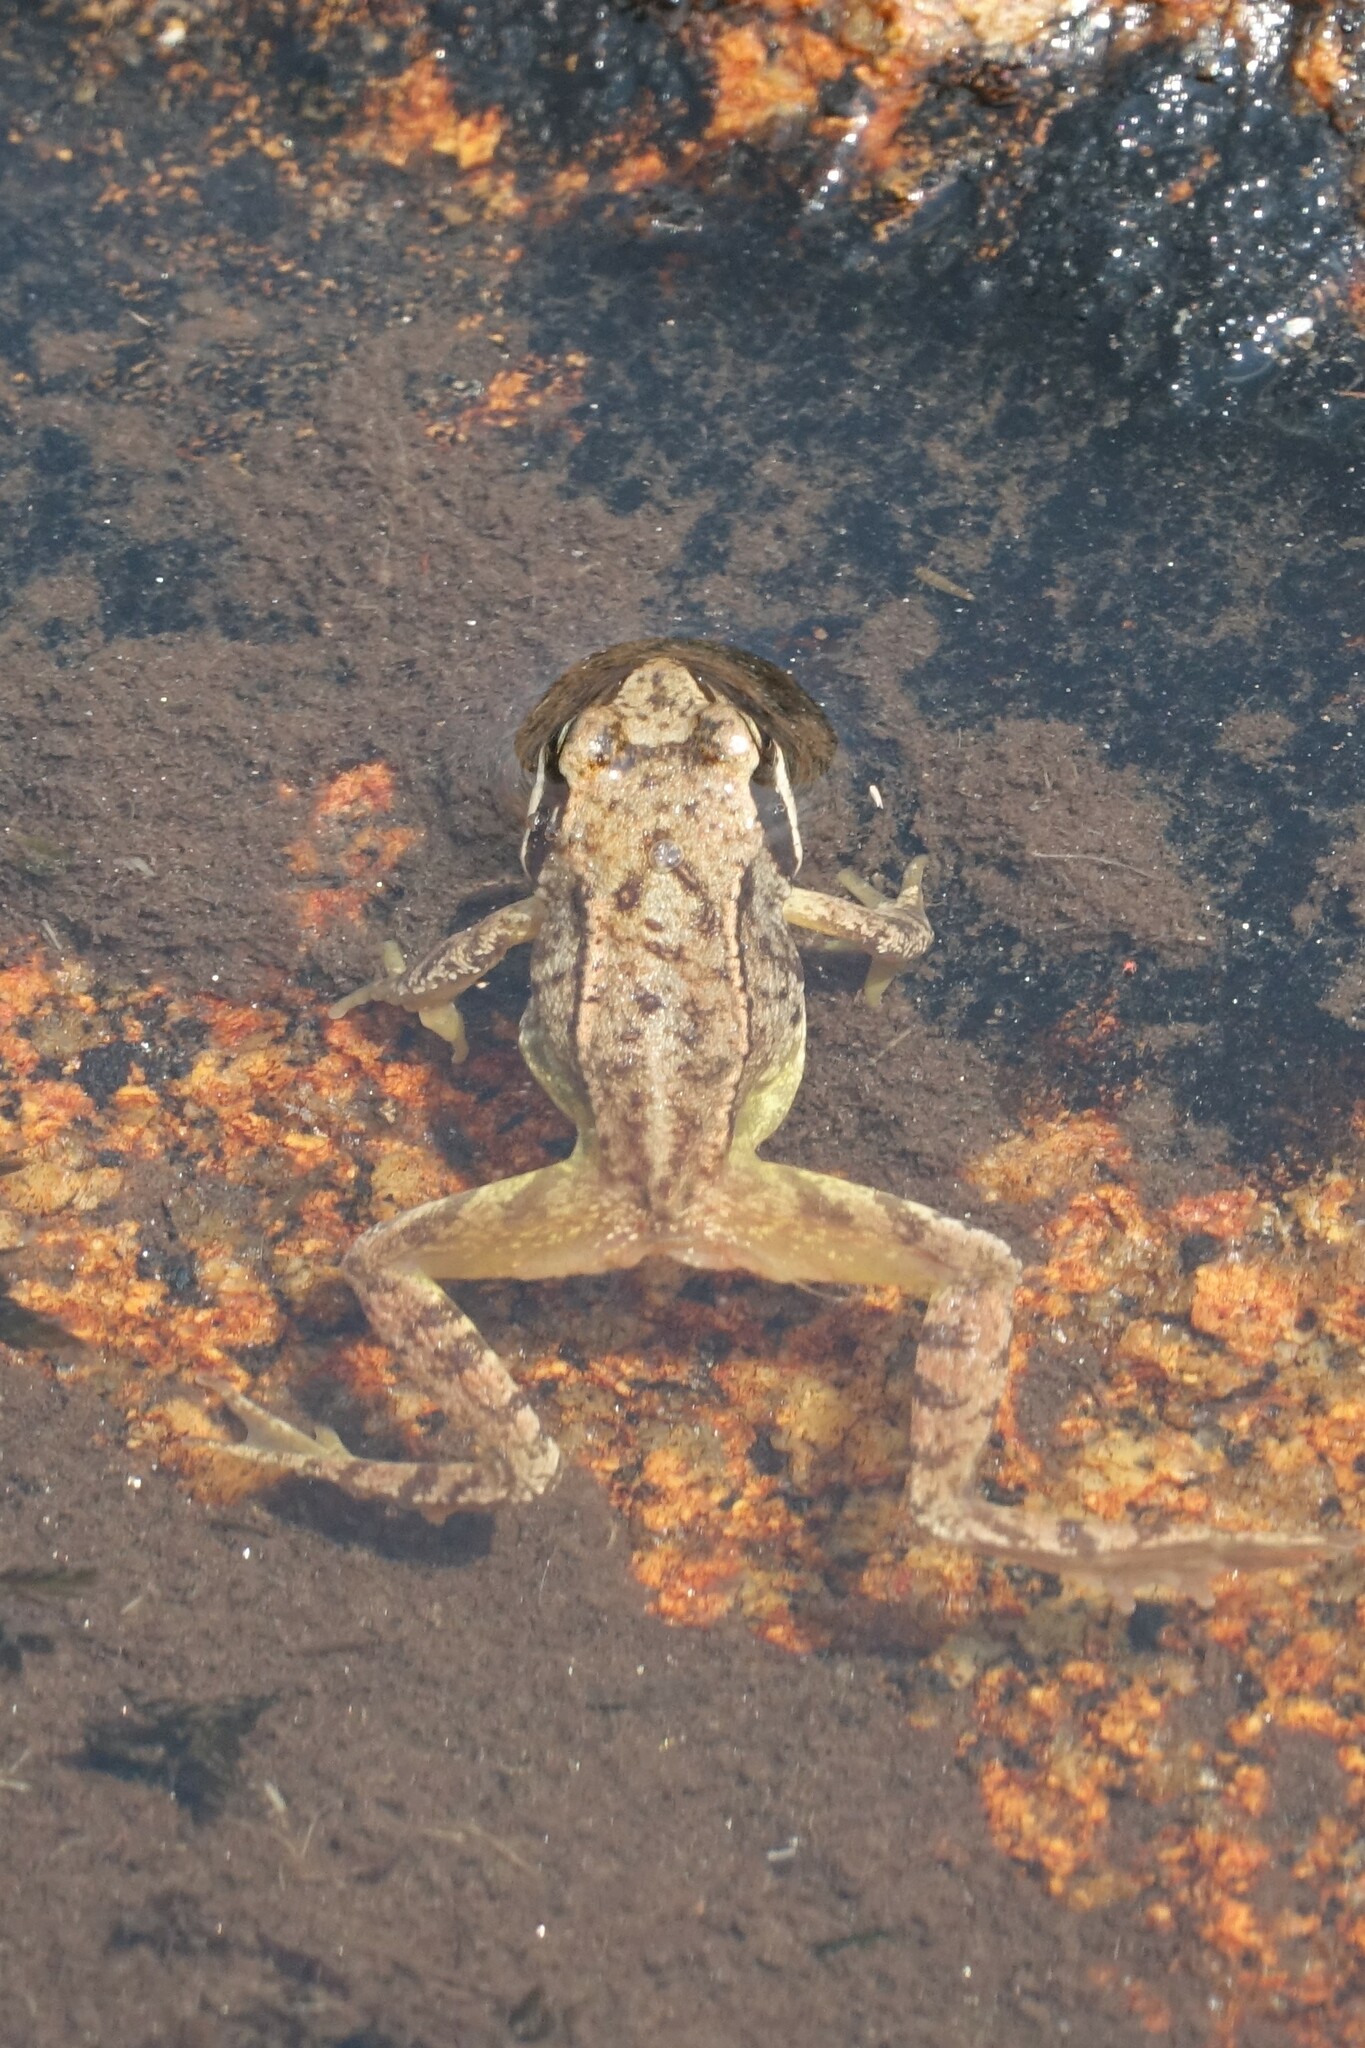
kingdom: Animalia
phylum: Chordata
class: Amphibia
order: Anura
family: Ranidae
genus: Rana
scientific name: Rana temporaria
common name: Common frog
